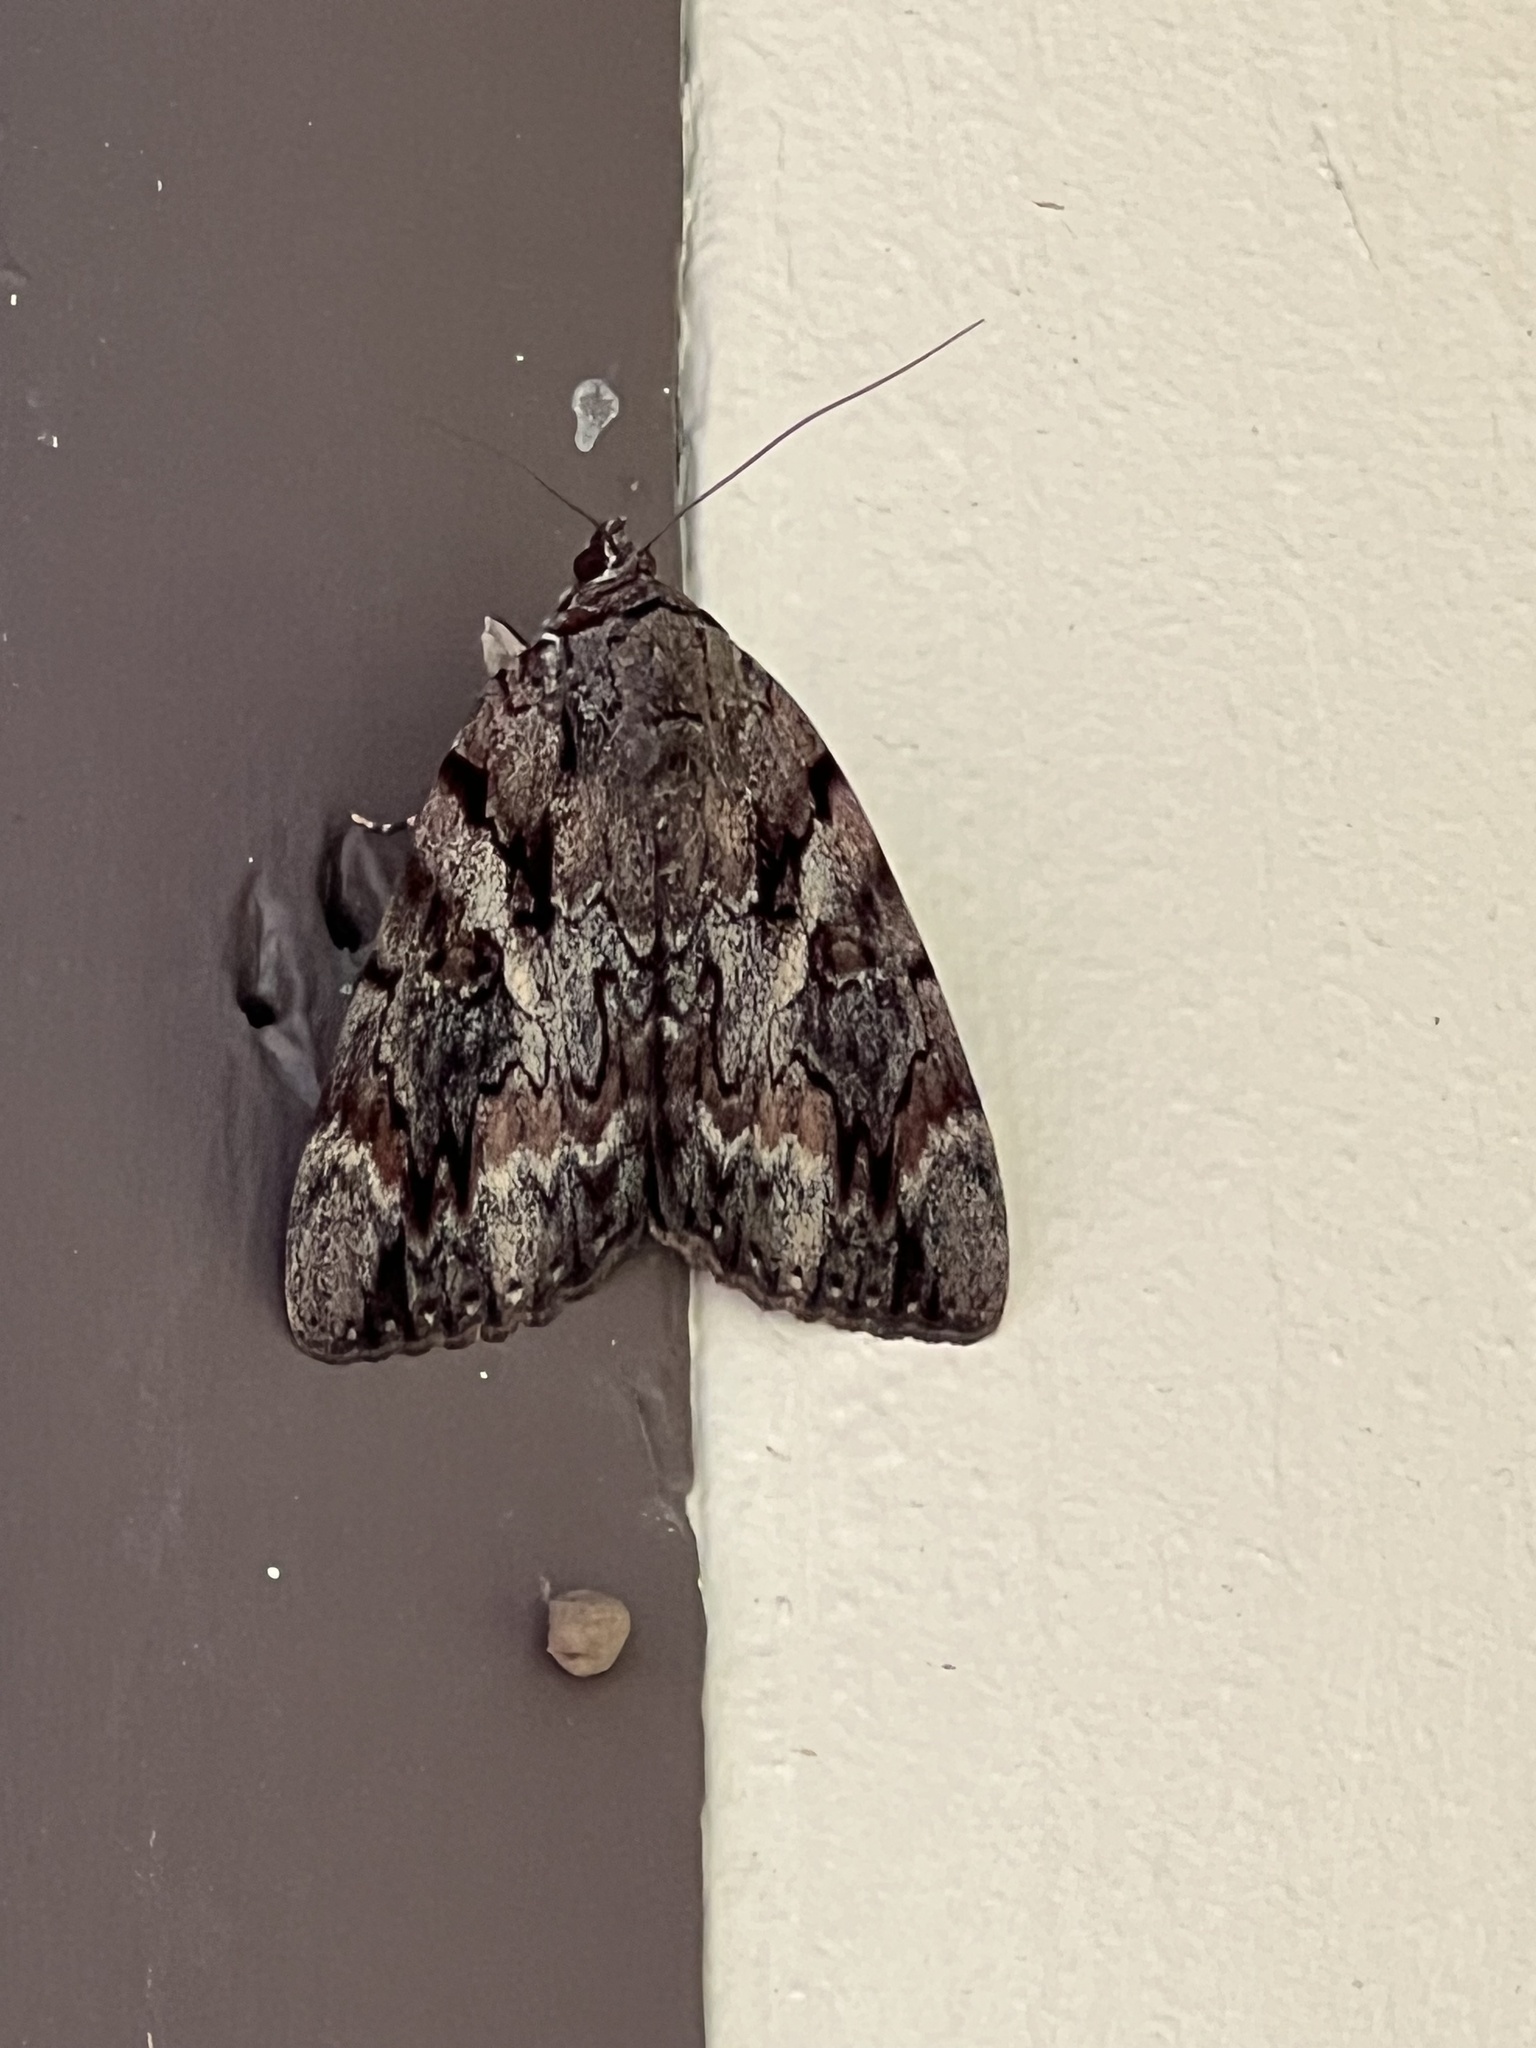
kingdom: Animalia
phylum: Arthropoda
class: Insecta
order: Lepidoptera
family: Erebidae
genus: Catocala
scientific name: Catocala agrippina
